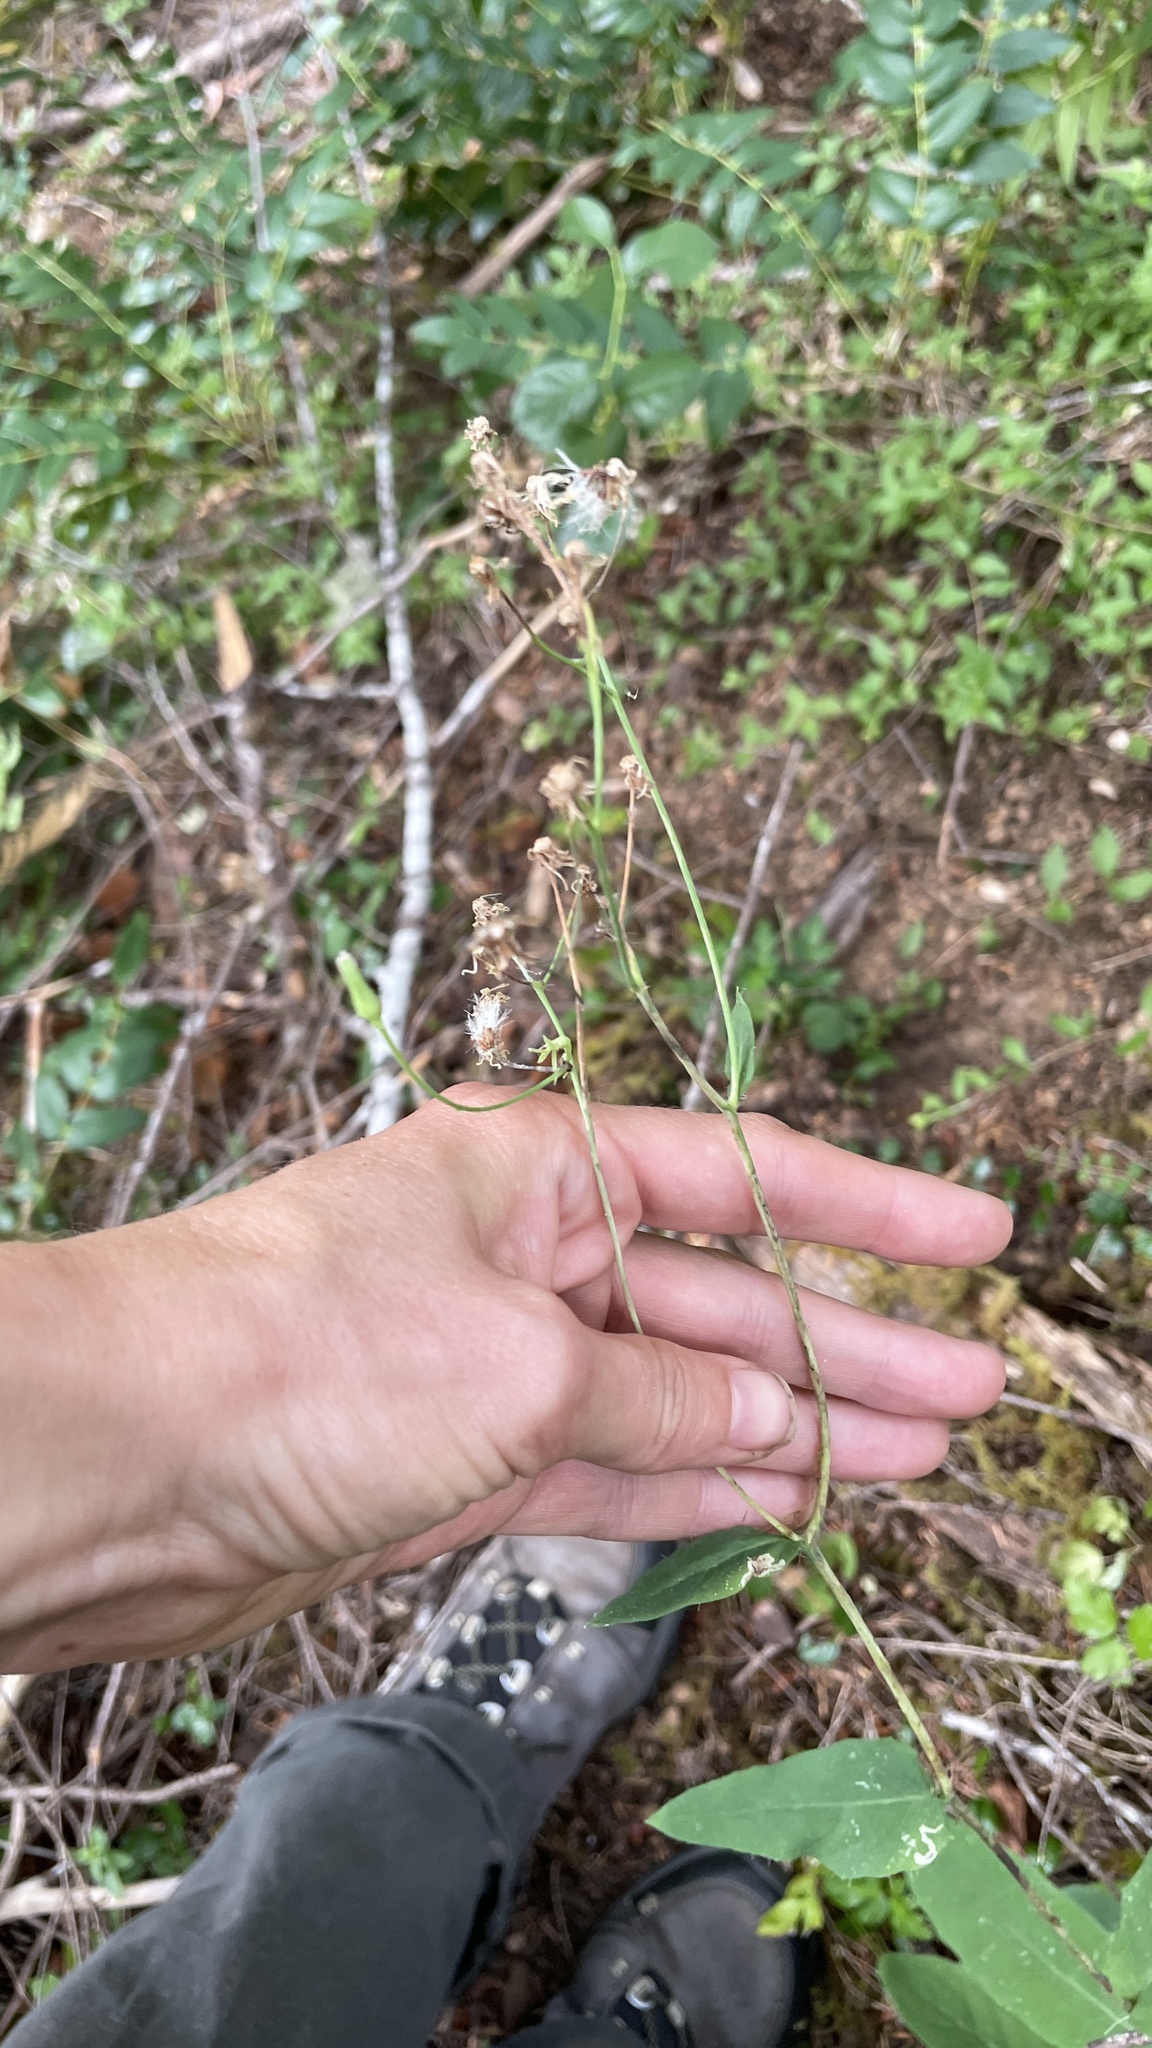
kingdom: Plantae
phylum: Tracheophyta
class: Magnoliopsida
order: Asterales
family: Asteraceae
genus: Hieracium
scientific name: Hieracium albiflorum
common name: White hawkweed
